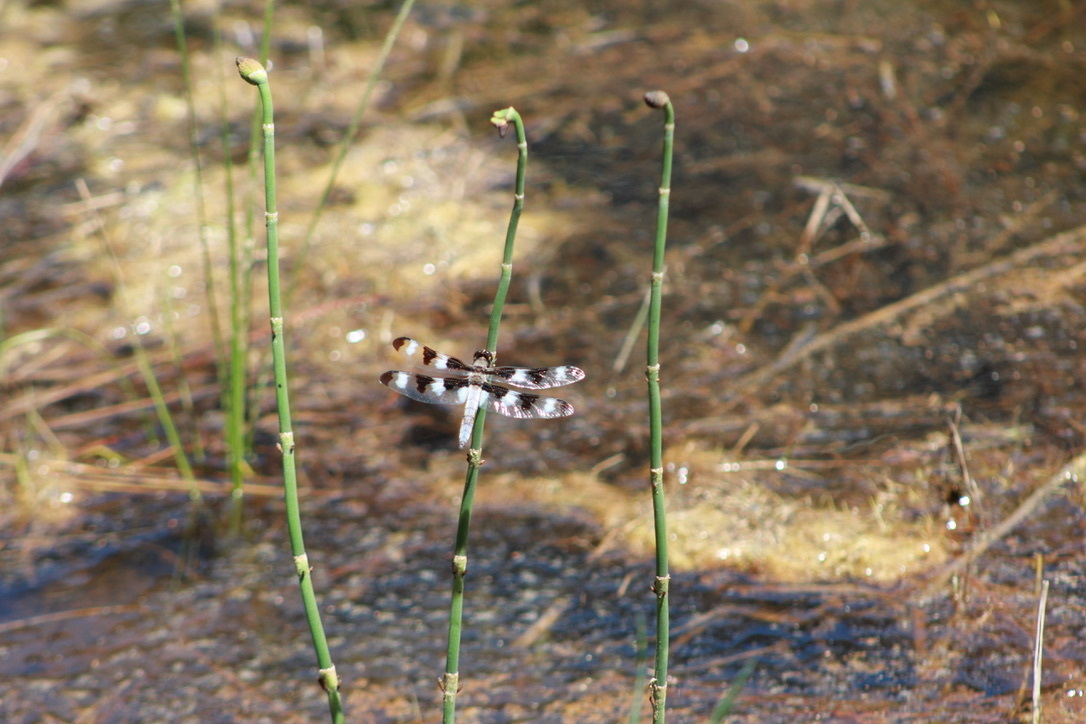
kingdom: Animalia
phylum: Arthropoda
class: Insecta
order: Odonata
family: Libellulidae
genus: Libellula
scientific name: Libellula pulchella
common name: Twelve-spotted skimmer
